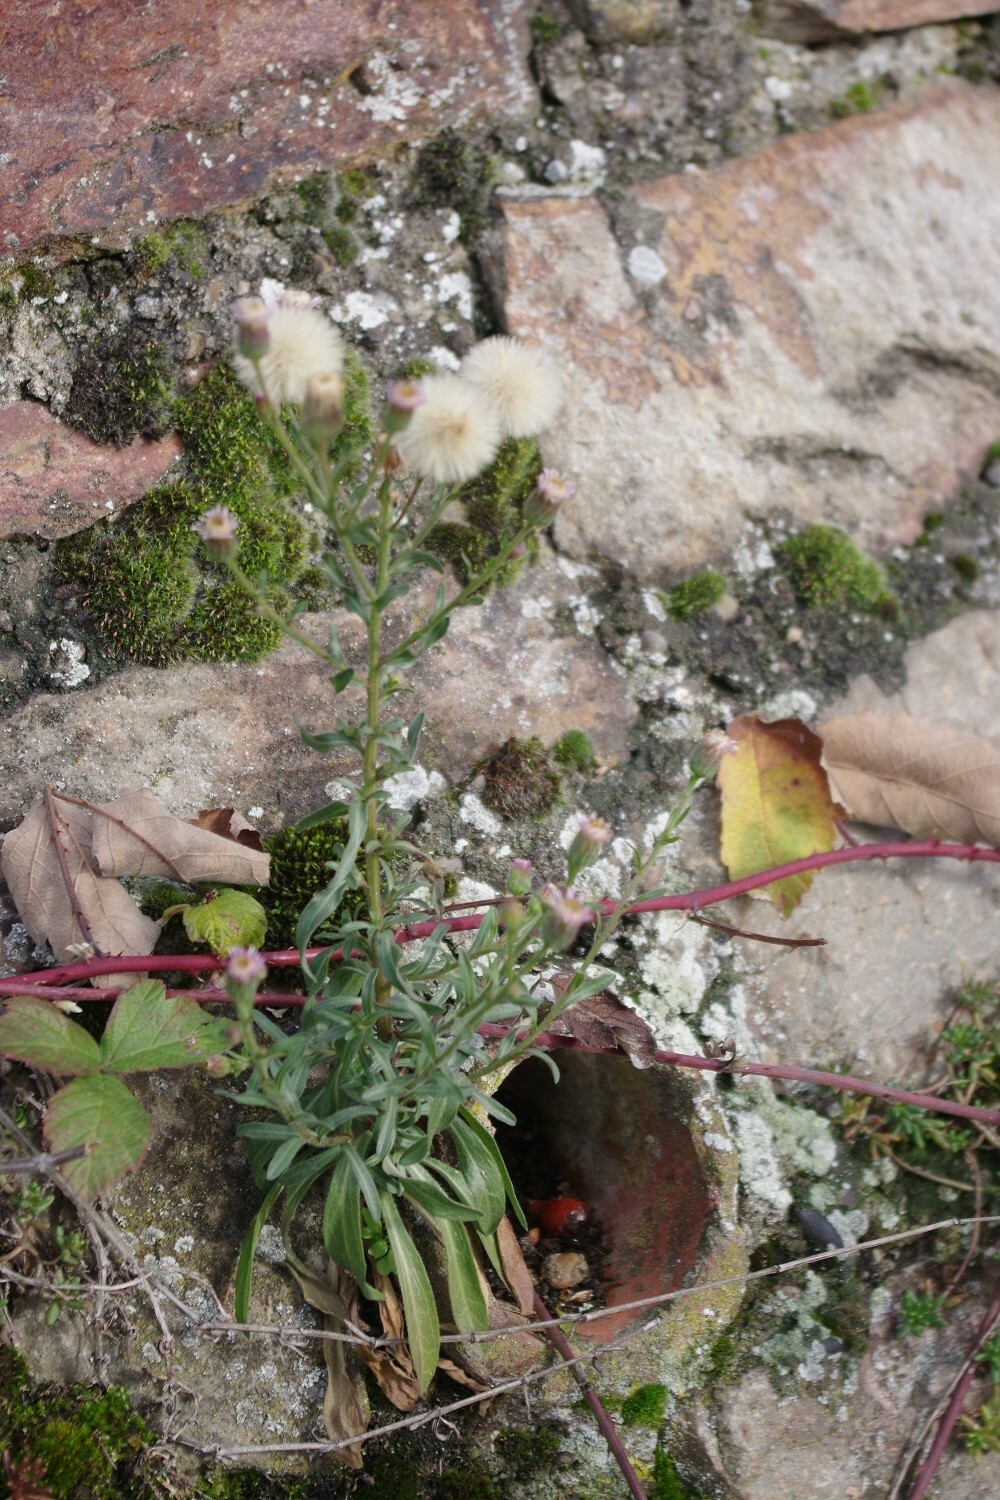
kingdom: Plantae
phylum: Tracheophyta
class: Magnoliopsida
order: Asterales
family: Asteraceae
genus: Erigeron
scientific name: Erigeron acris
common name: Blue fleabane
